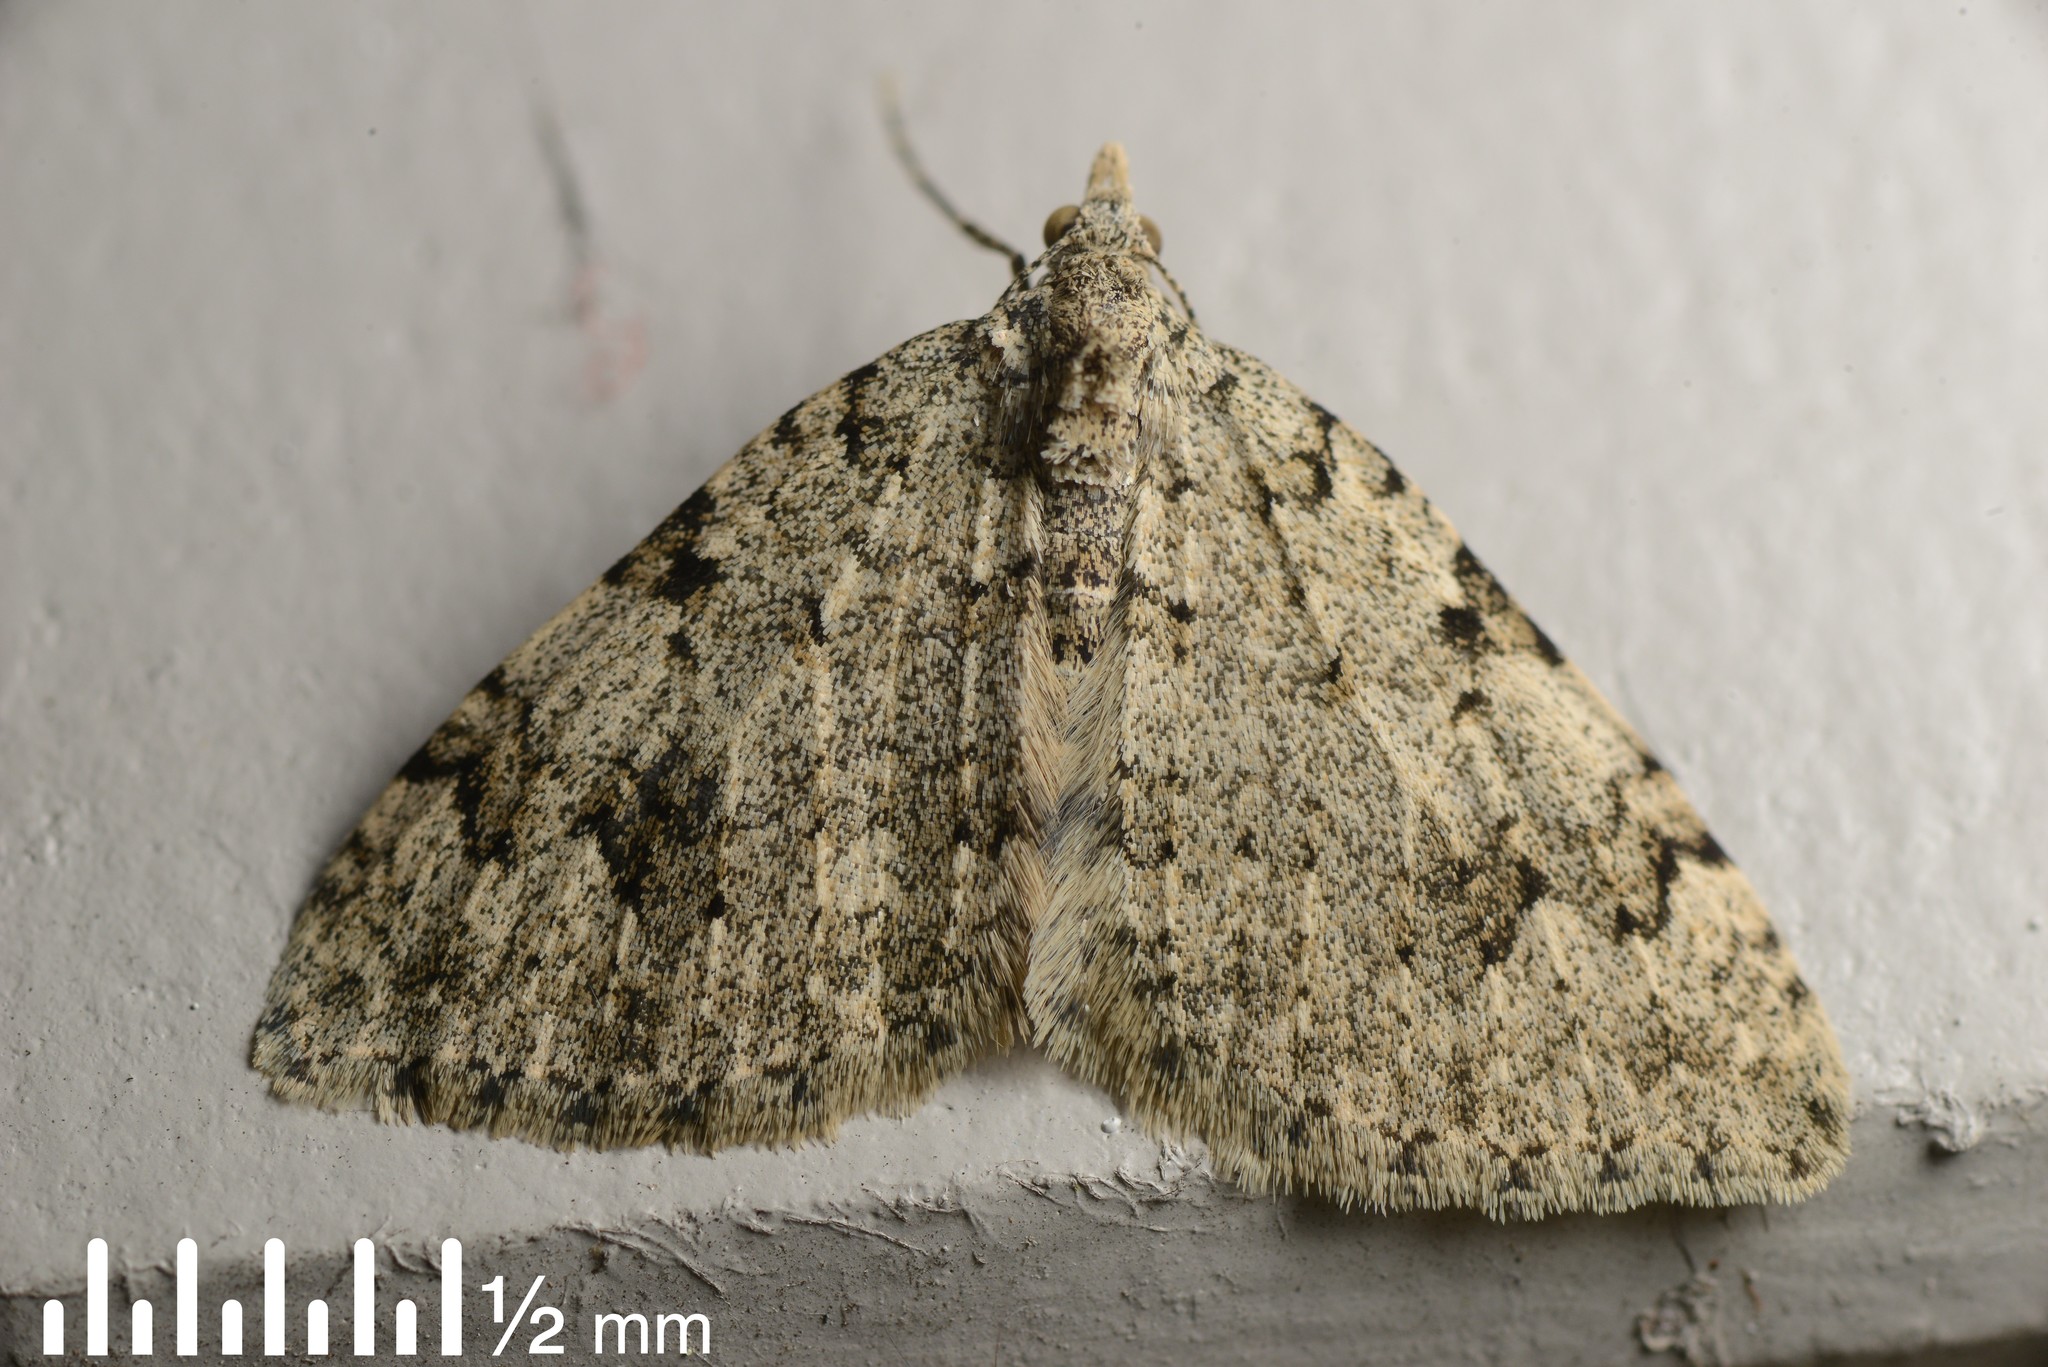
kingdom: Animalia
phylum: Arthropoda
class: Insecta
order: Lepidoptera
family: Geometridae
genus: Helastia
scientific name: Helastia cinerearia
